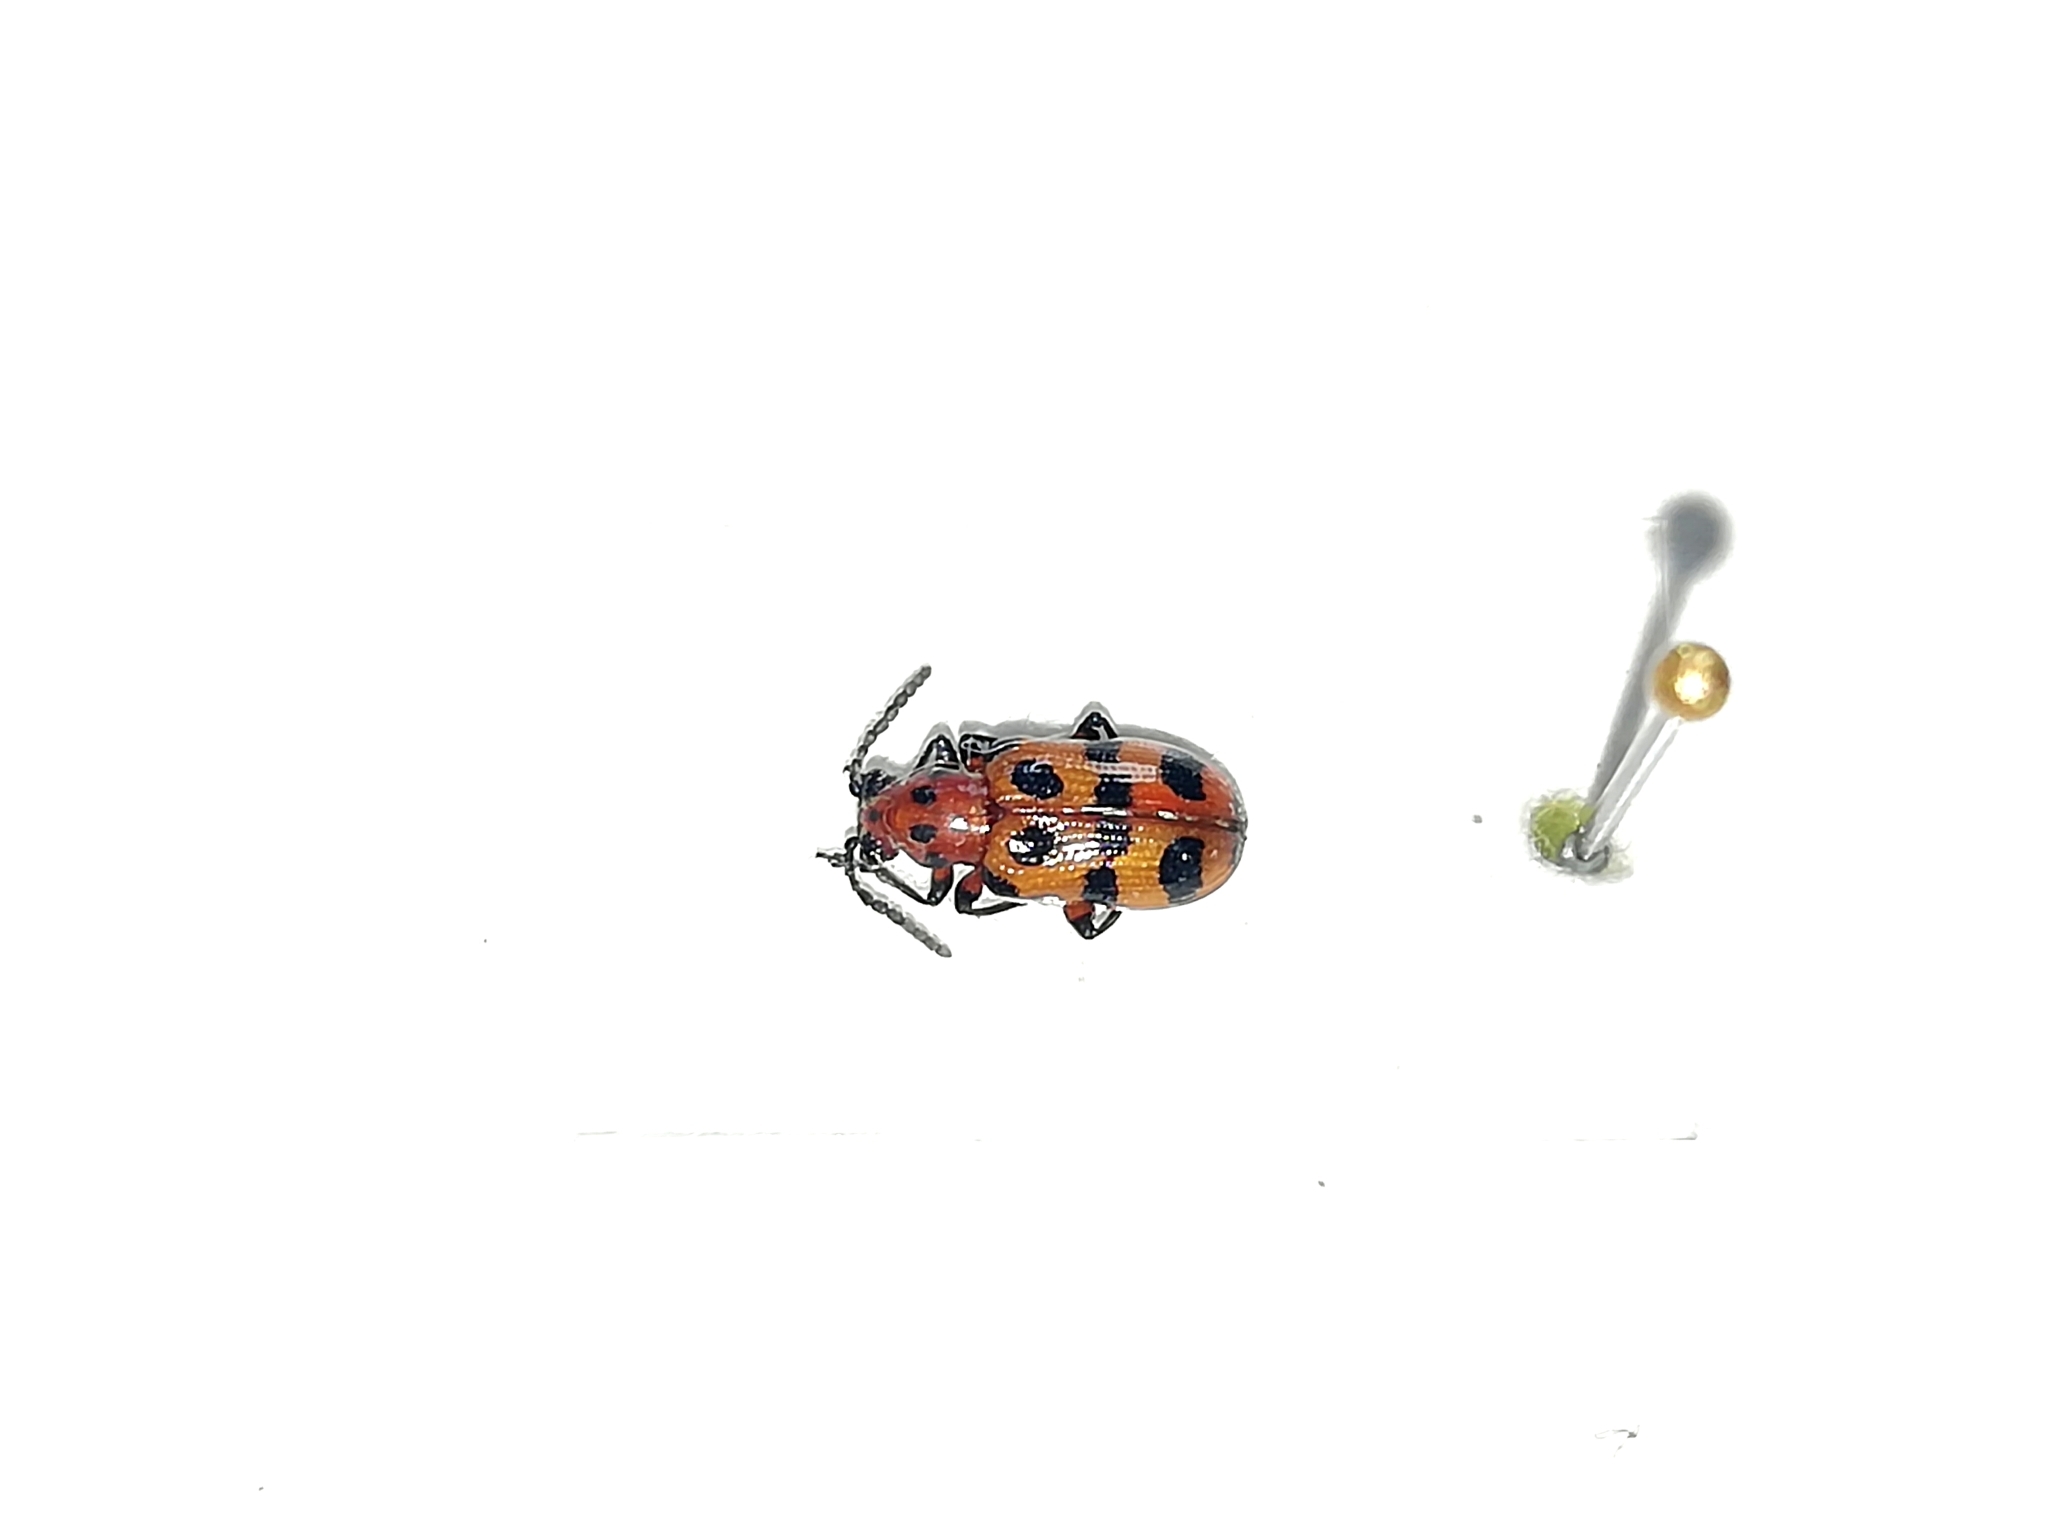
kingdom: Animalia
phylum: Arthropoda
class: Insecta
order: Coleoptera
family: Chrysomelidae
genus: Crioceris
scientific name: Crioceris quatuordecimpunctata
